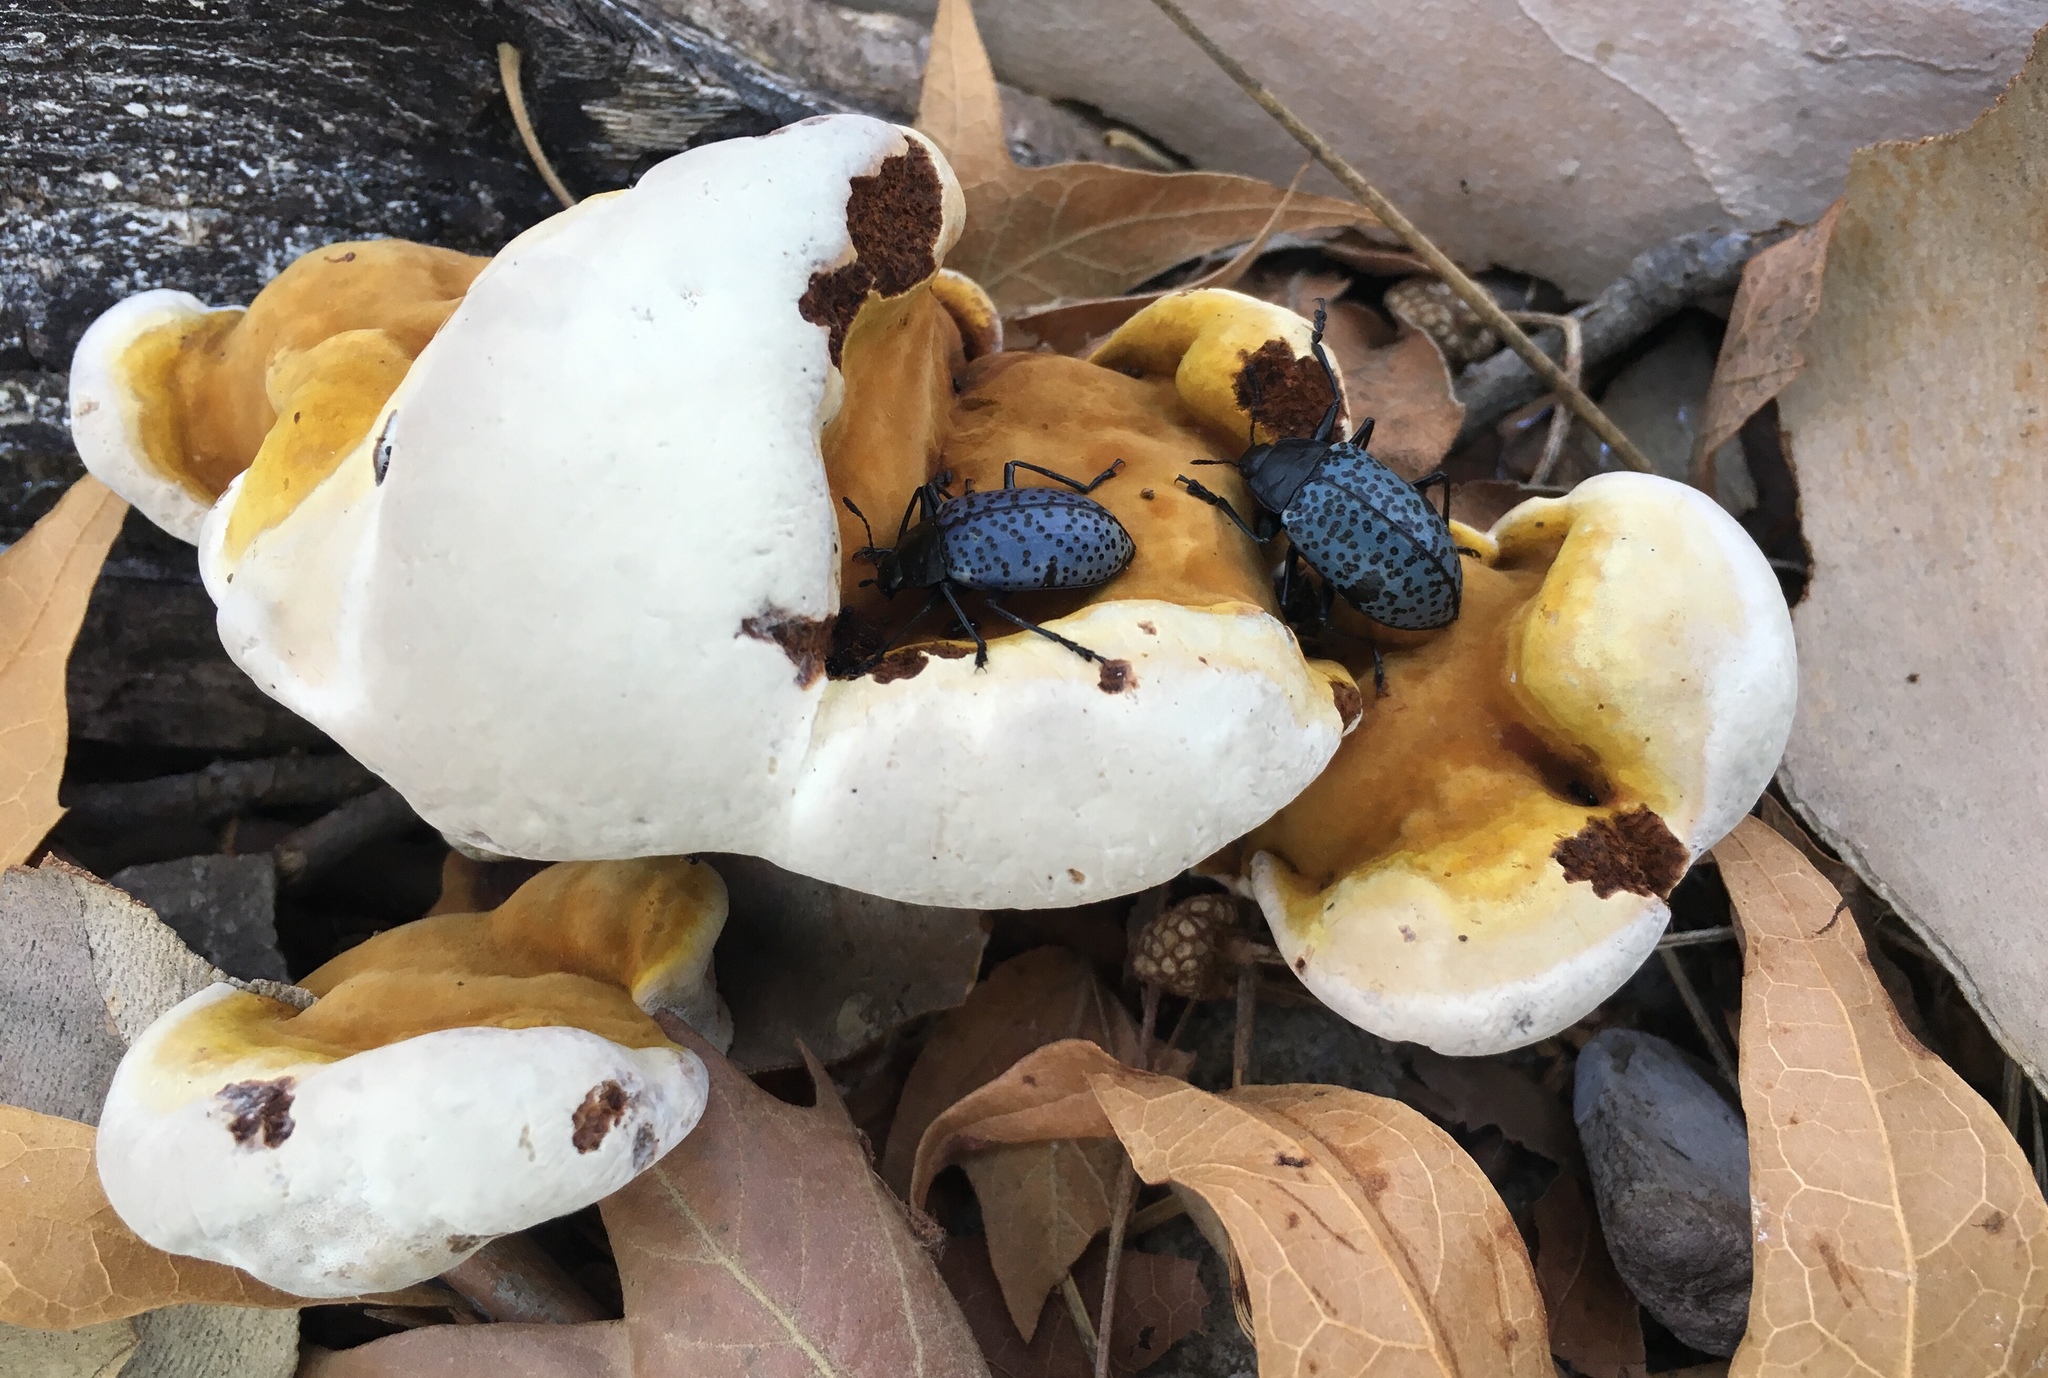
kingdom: Animalia
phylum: Arthropoda
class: Insecta
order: Coleoptera
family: Erotylidae
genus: Gibbifer
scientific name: Gibbifer californicus
